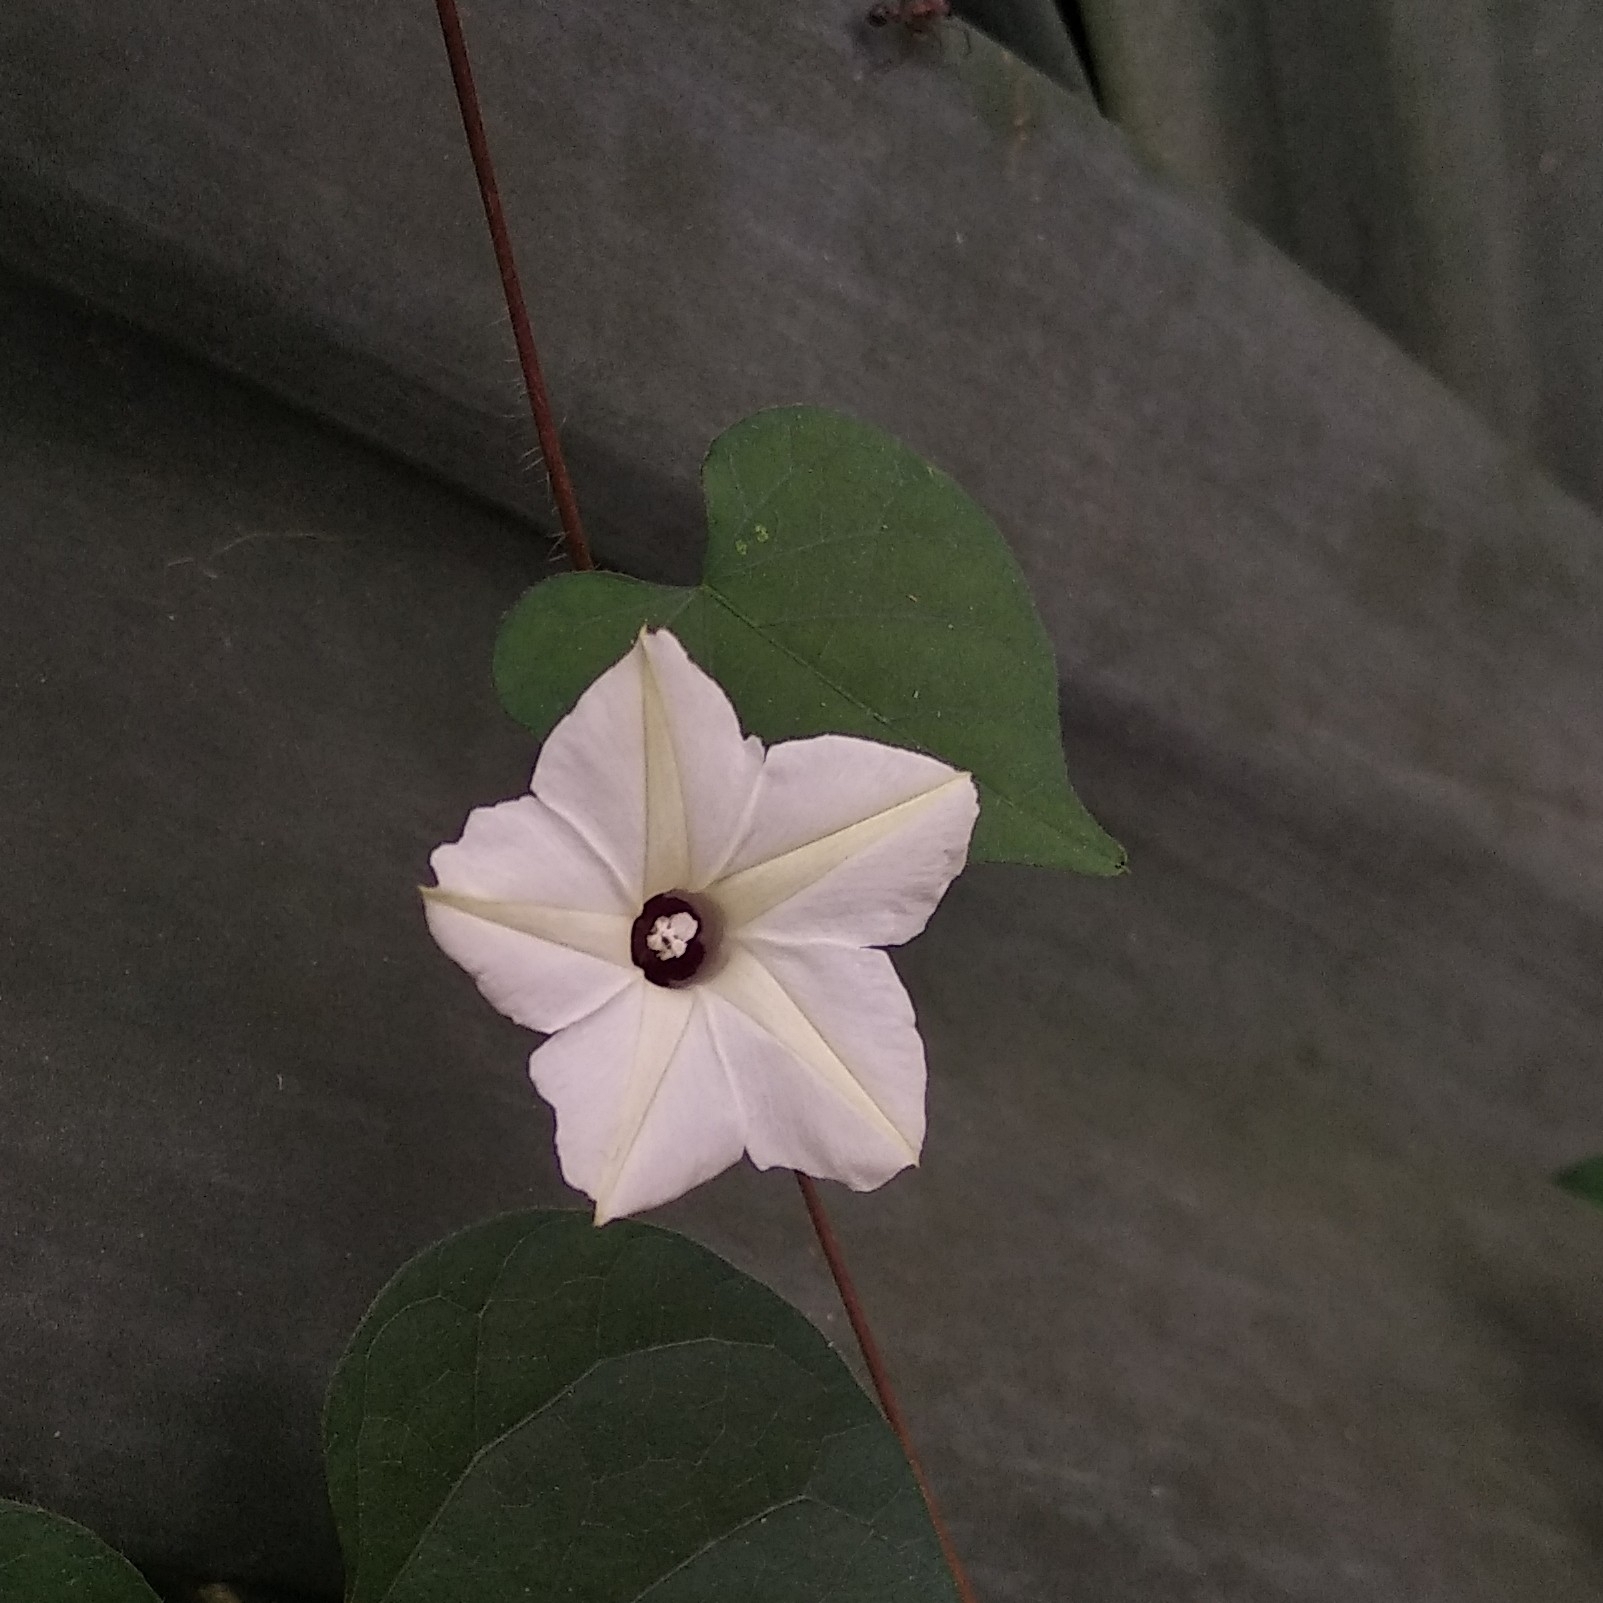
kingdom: Plantae
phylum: Tracheophyta
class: Magnoliopsida
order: Solanales
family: Convolvulaceae
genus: Ipomoea
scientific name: Ipomoea obscura
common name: Obscure morning-glory
